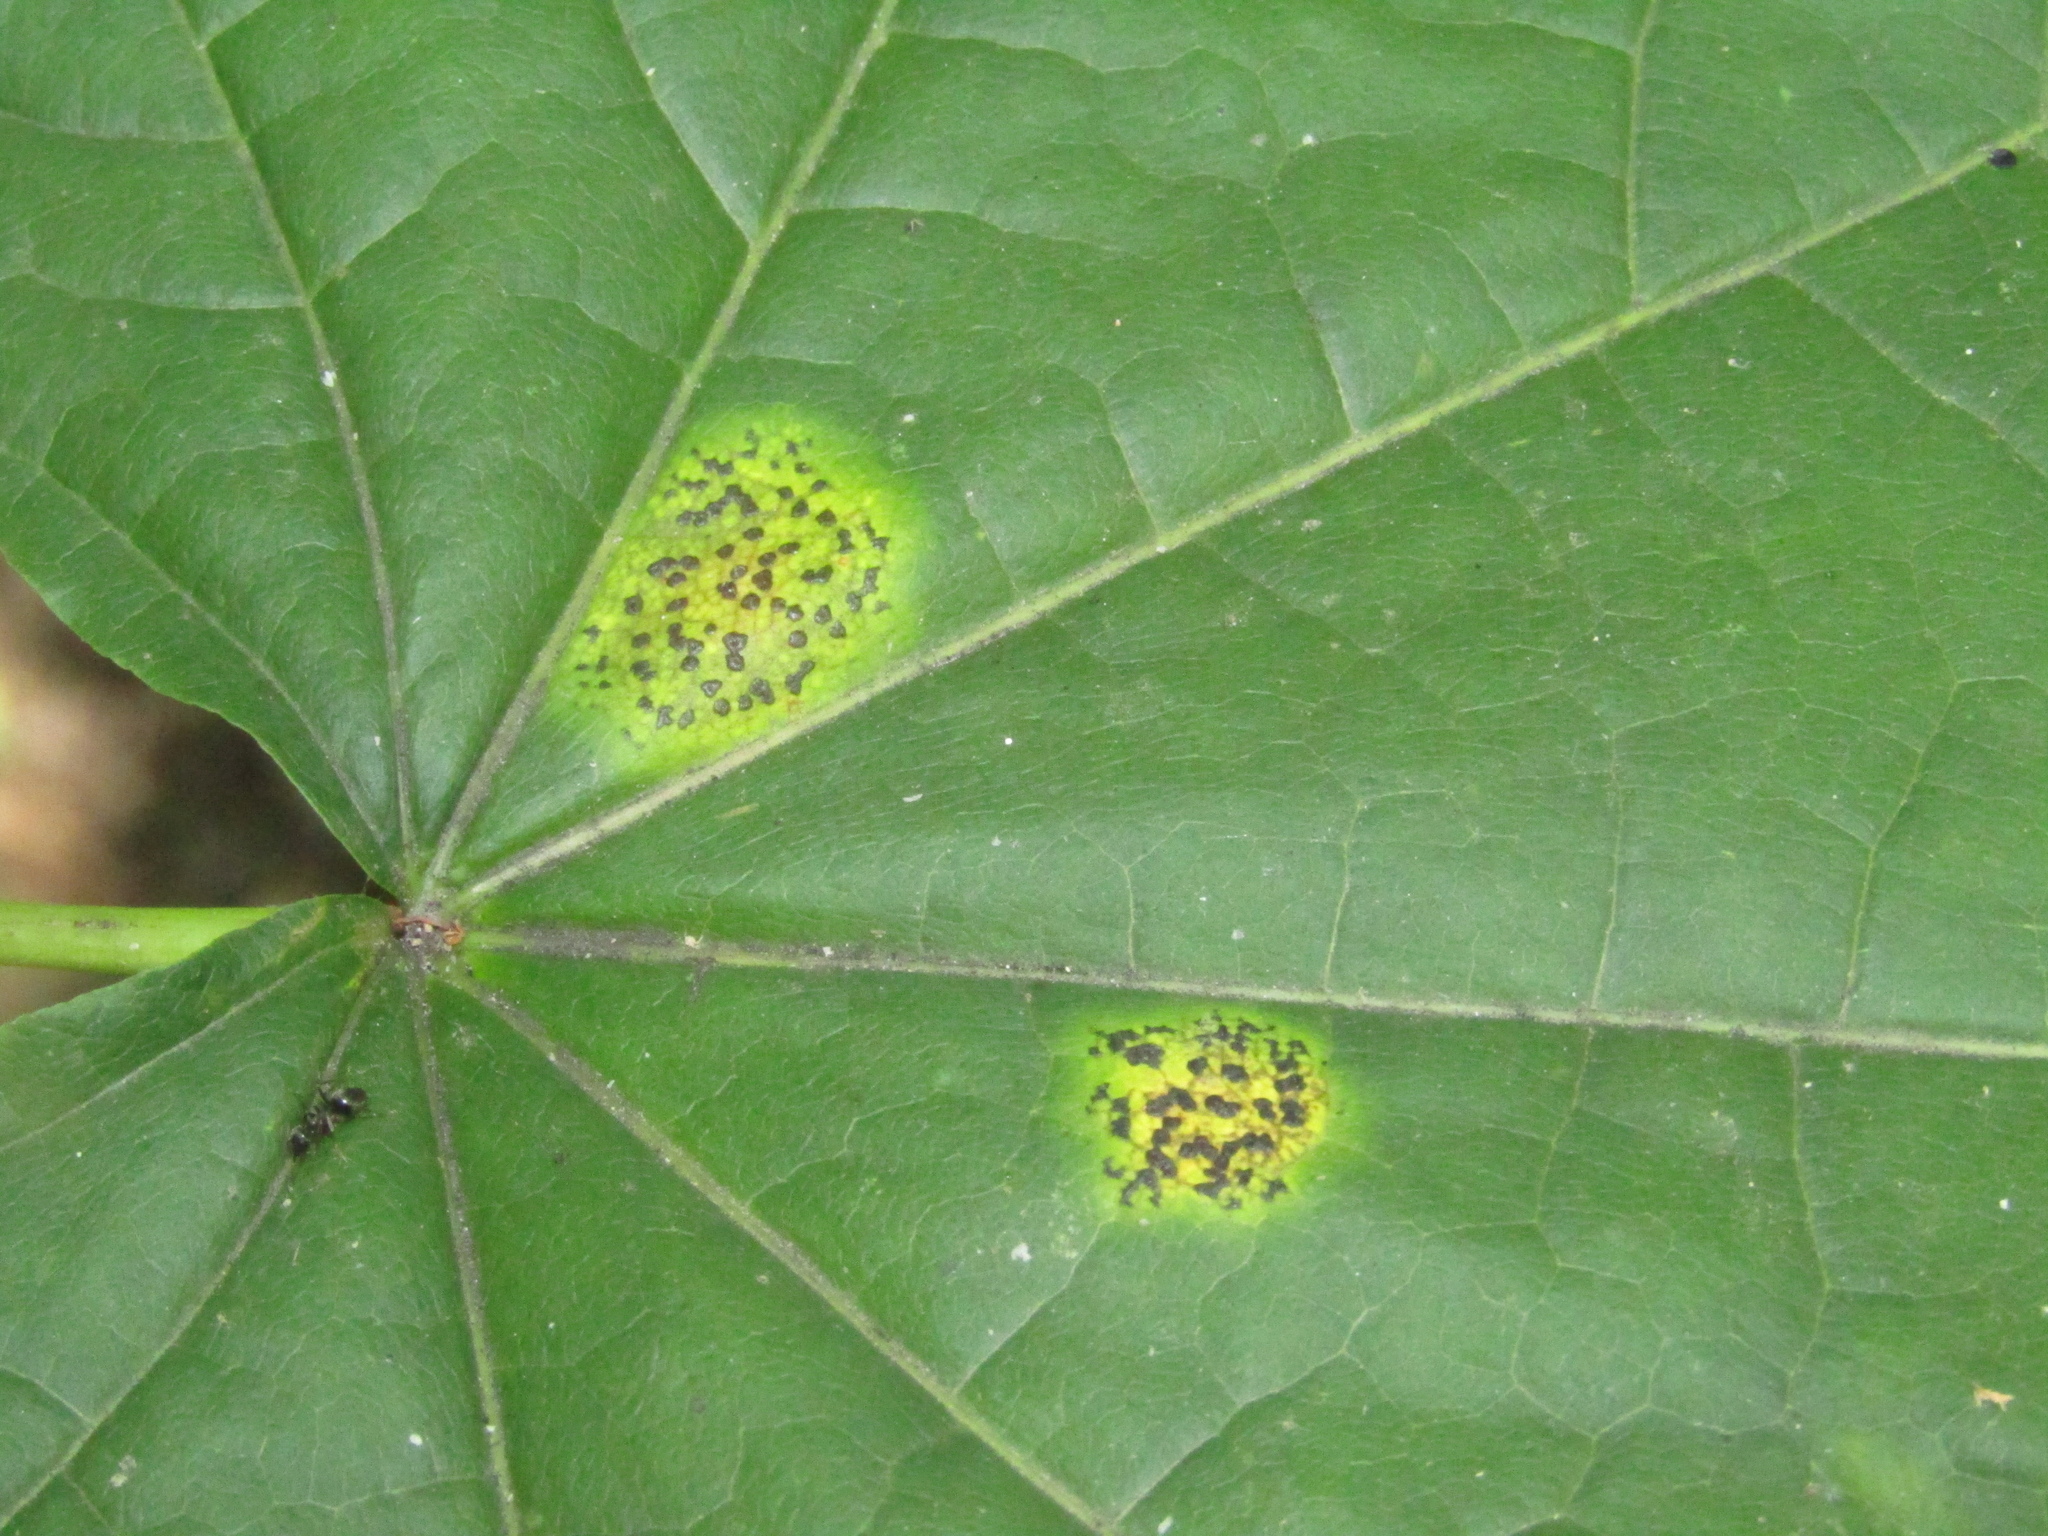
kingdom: Fungi
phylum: Ascomycota
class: Leotiomycetes
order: Rhytismatales
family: Rhytismataceae
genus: Rhytisma
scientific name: Rhytisma acerinum
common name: European tar spot
